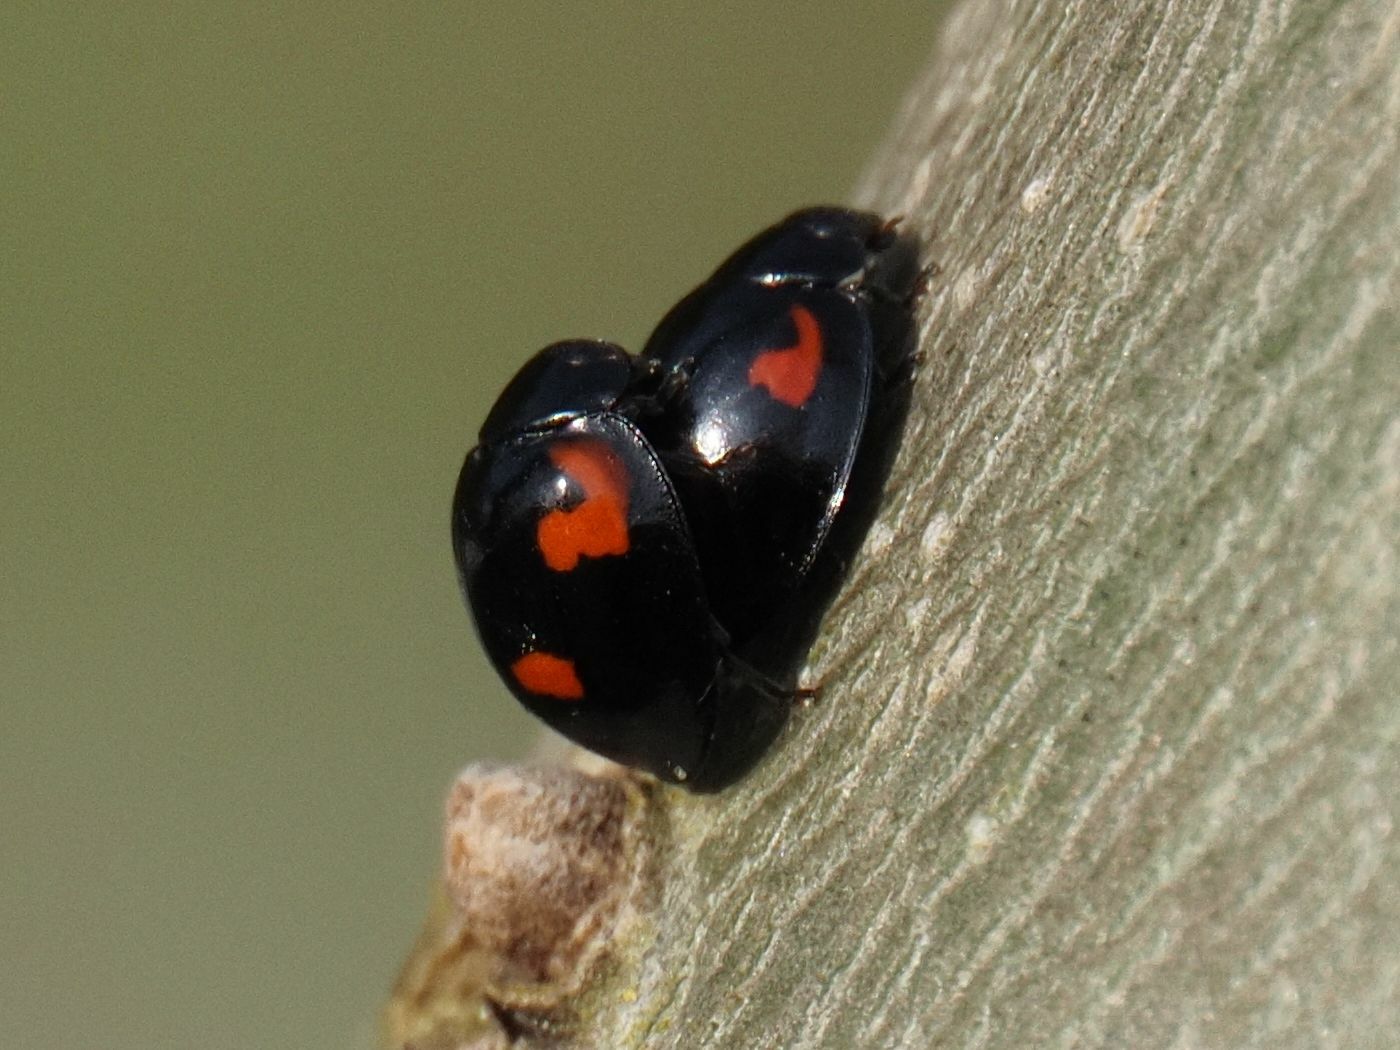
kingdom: Animalia
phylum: Arthropoda
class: Insecta
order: Coleoptera
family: Coccinellidae
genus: Brumus
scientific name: Brumus quadripustulatus
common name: Ladybird beetle
